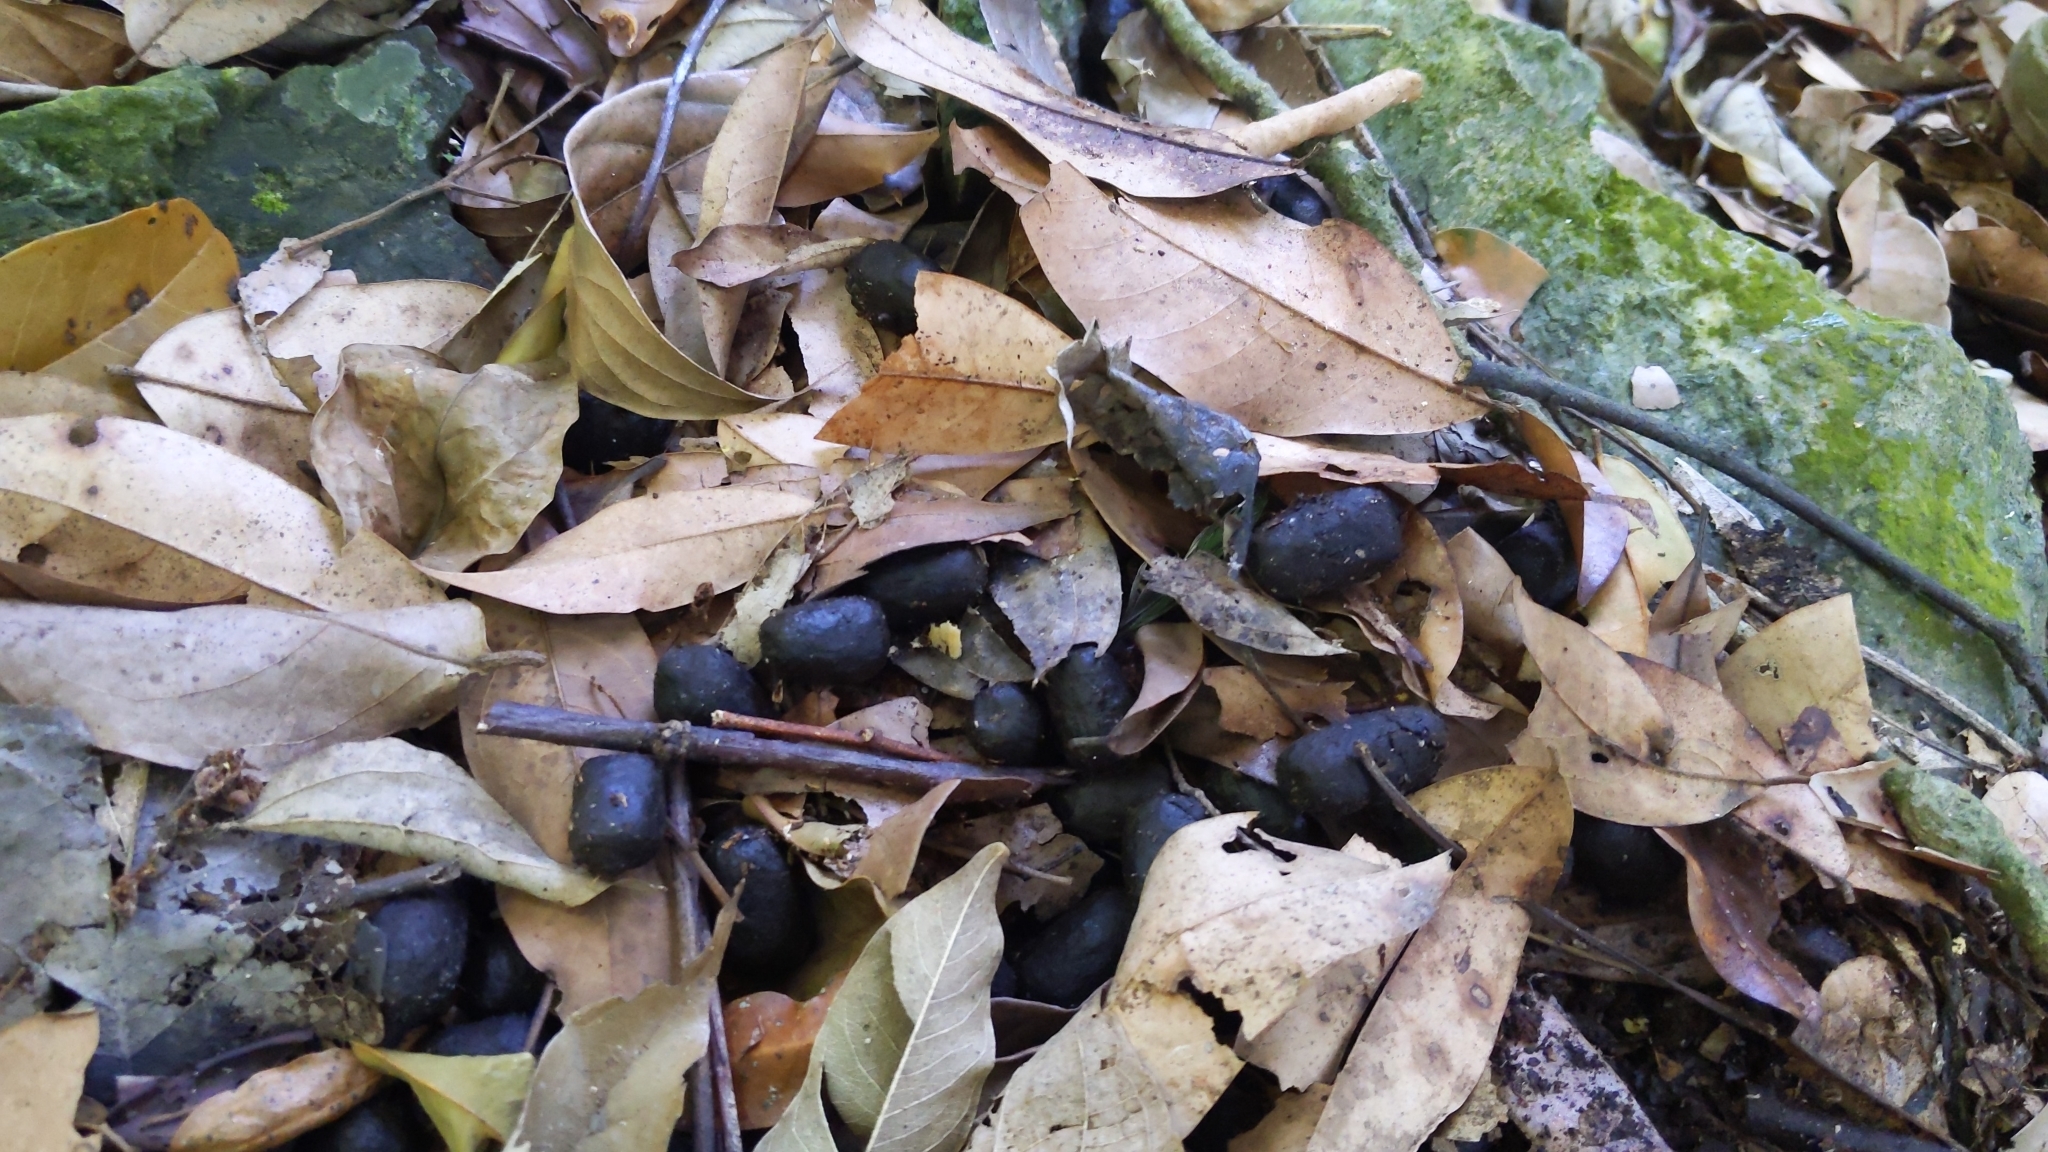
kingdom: Animalia
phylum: Chordata
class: Mammalia
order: Artiodactyla
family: Cervidae
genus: Rusa
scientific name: Rusa unicolor
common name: Sambar
